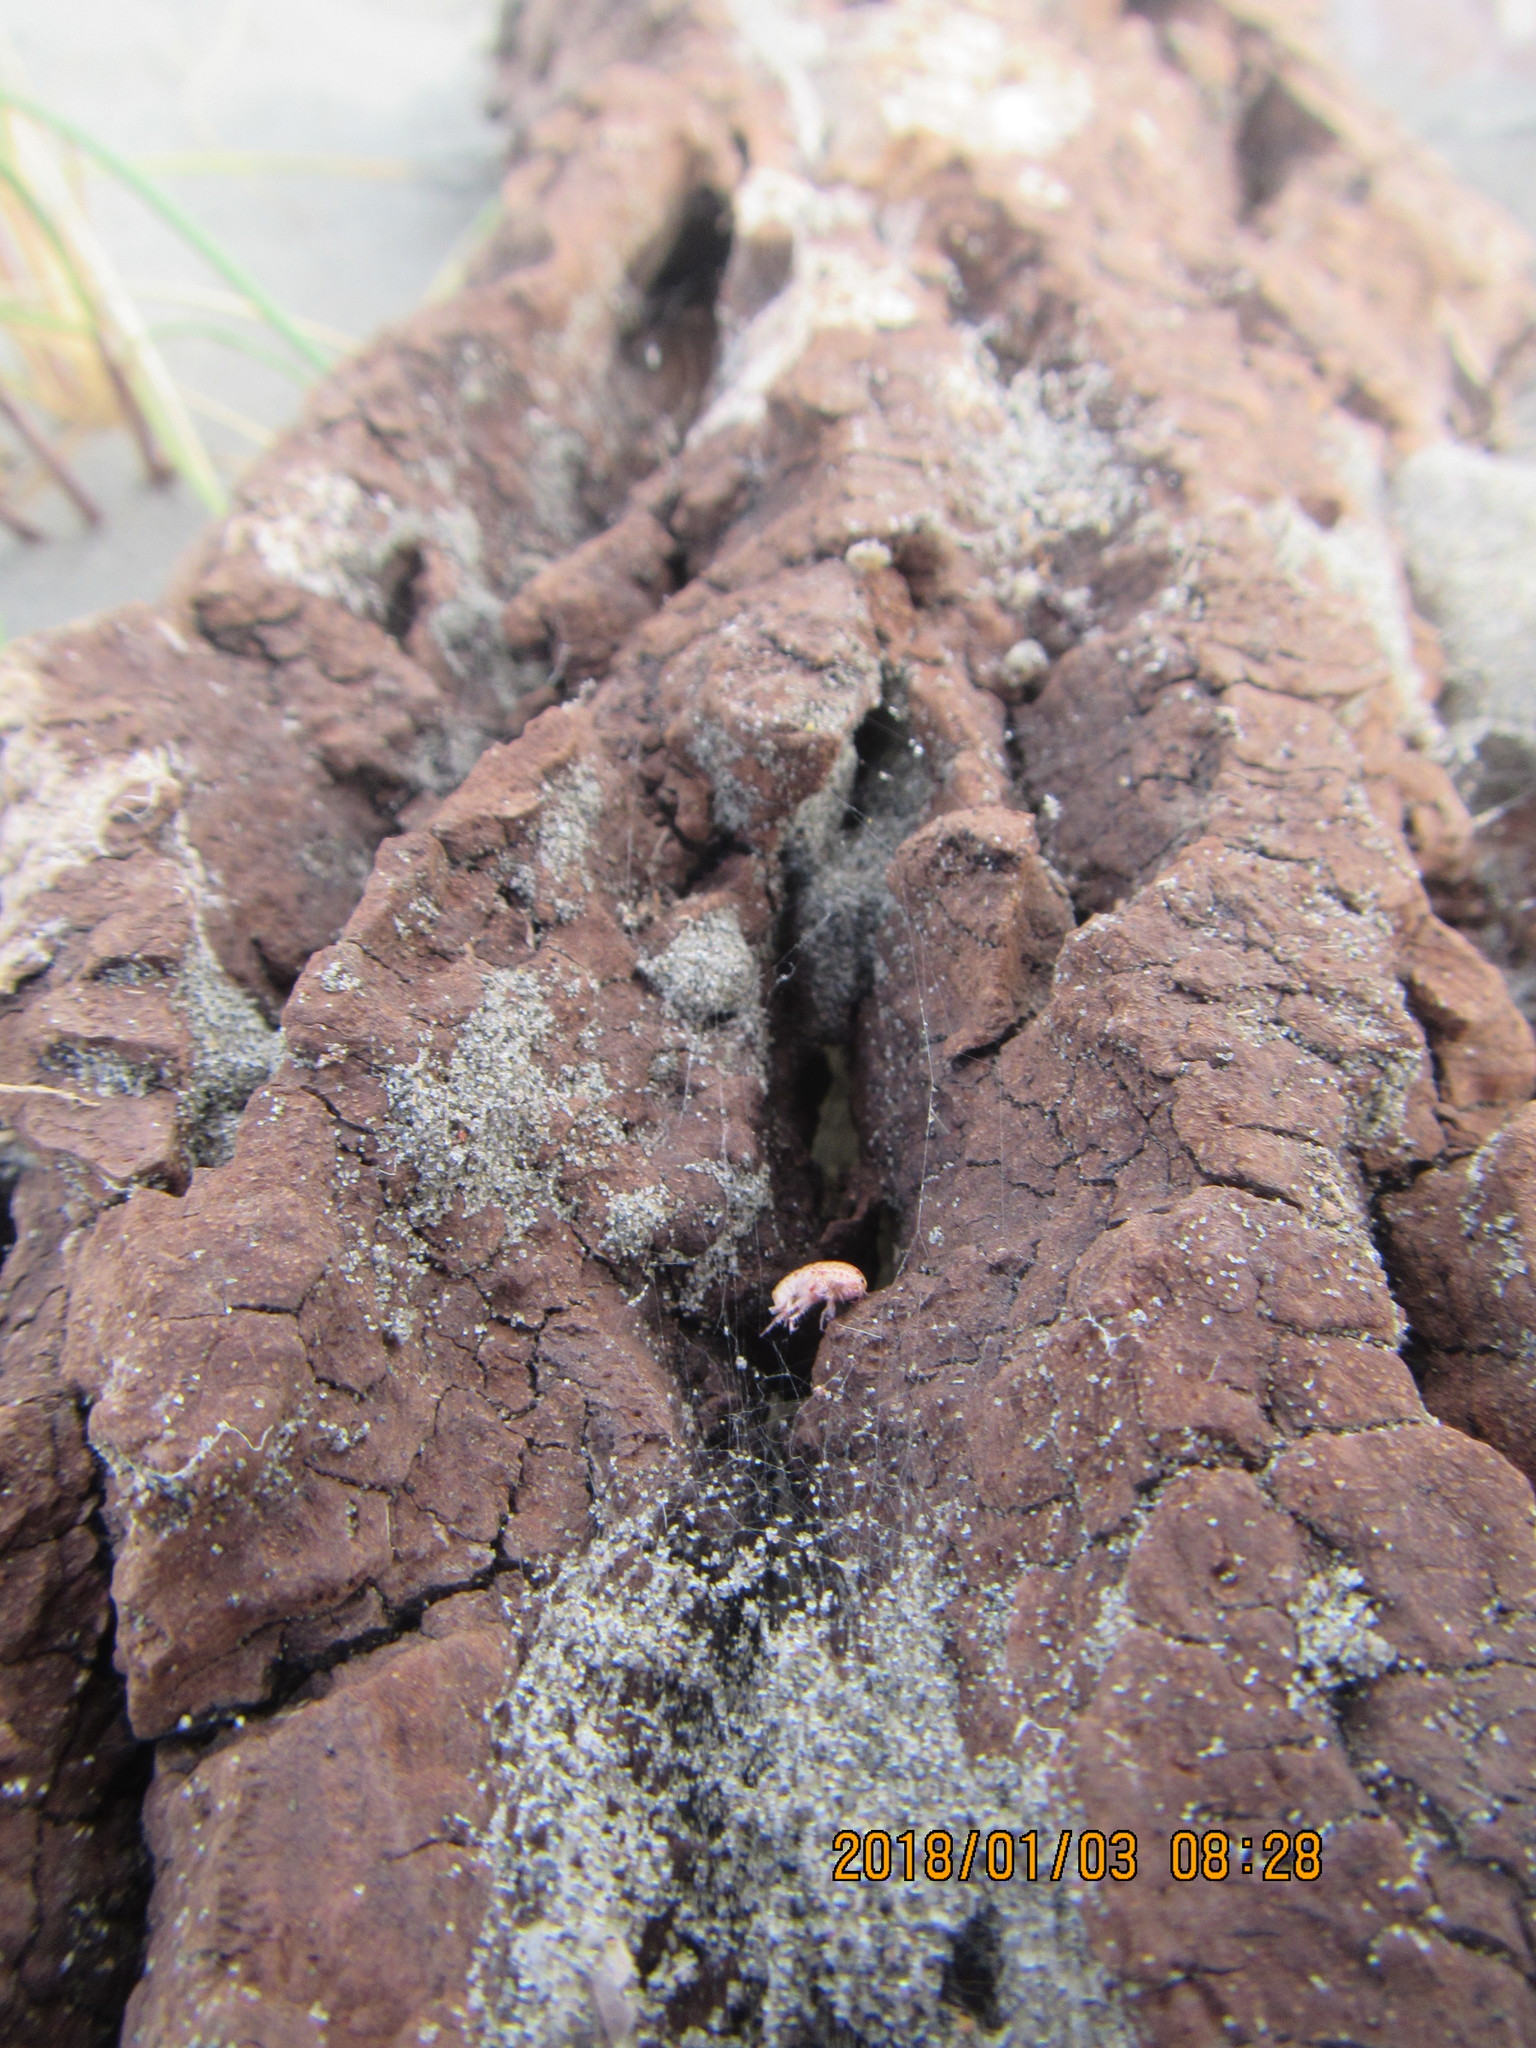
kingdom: Animalia
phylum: Arthropoda
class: Arachnida
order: Araneae
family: Theridiidae
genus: Latrodectus
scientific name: Latrodectus katipo
